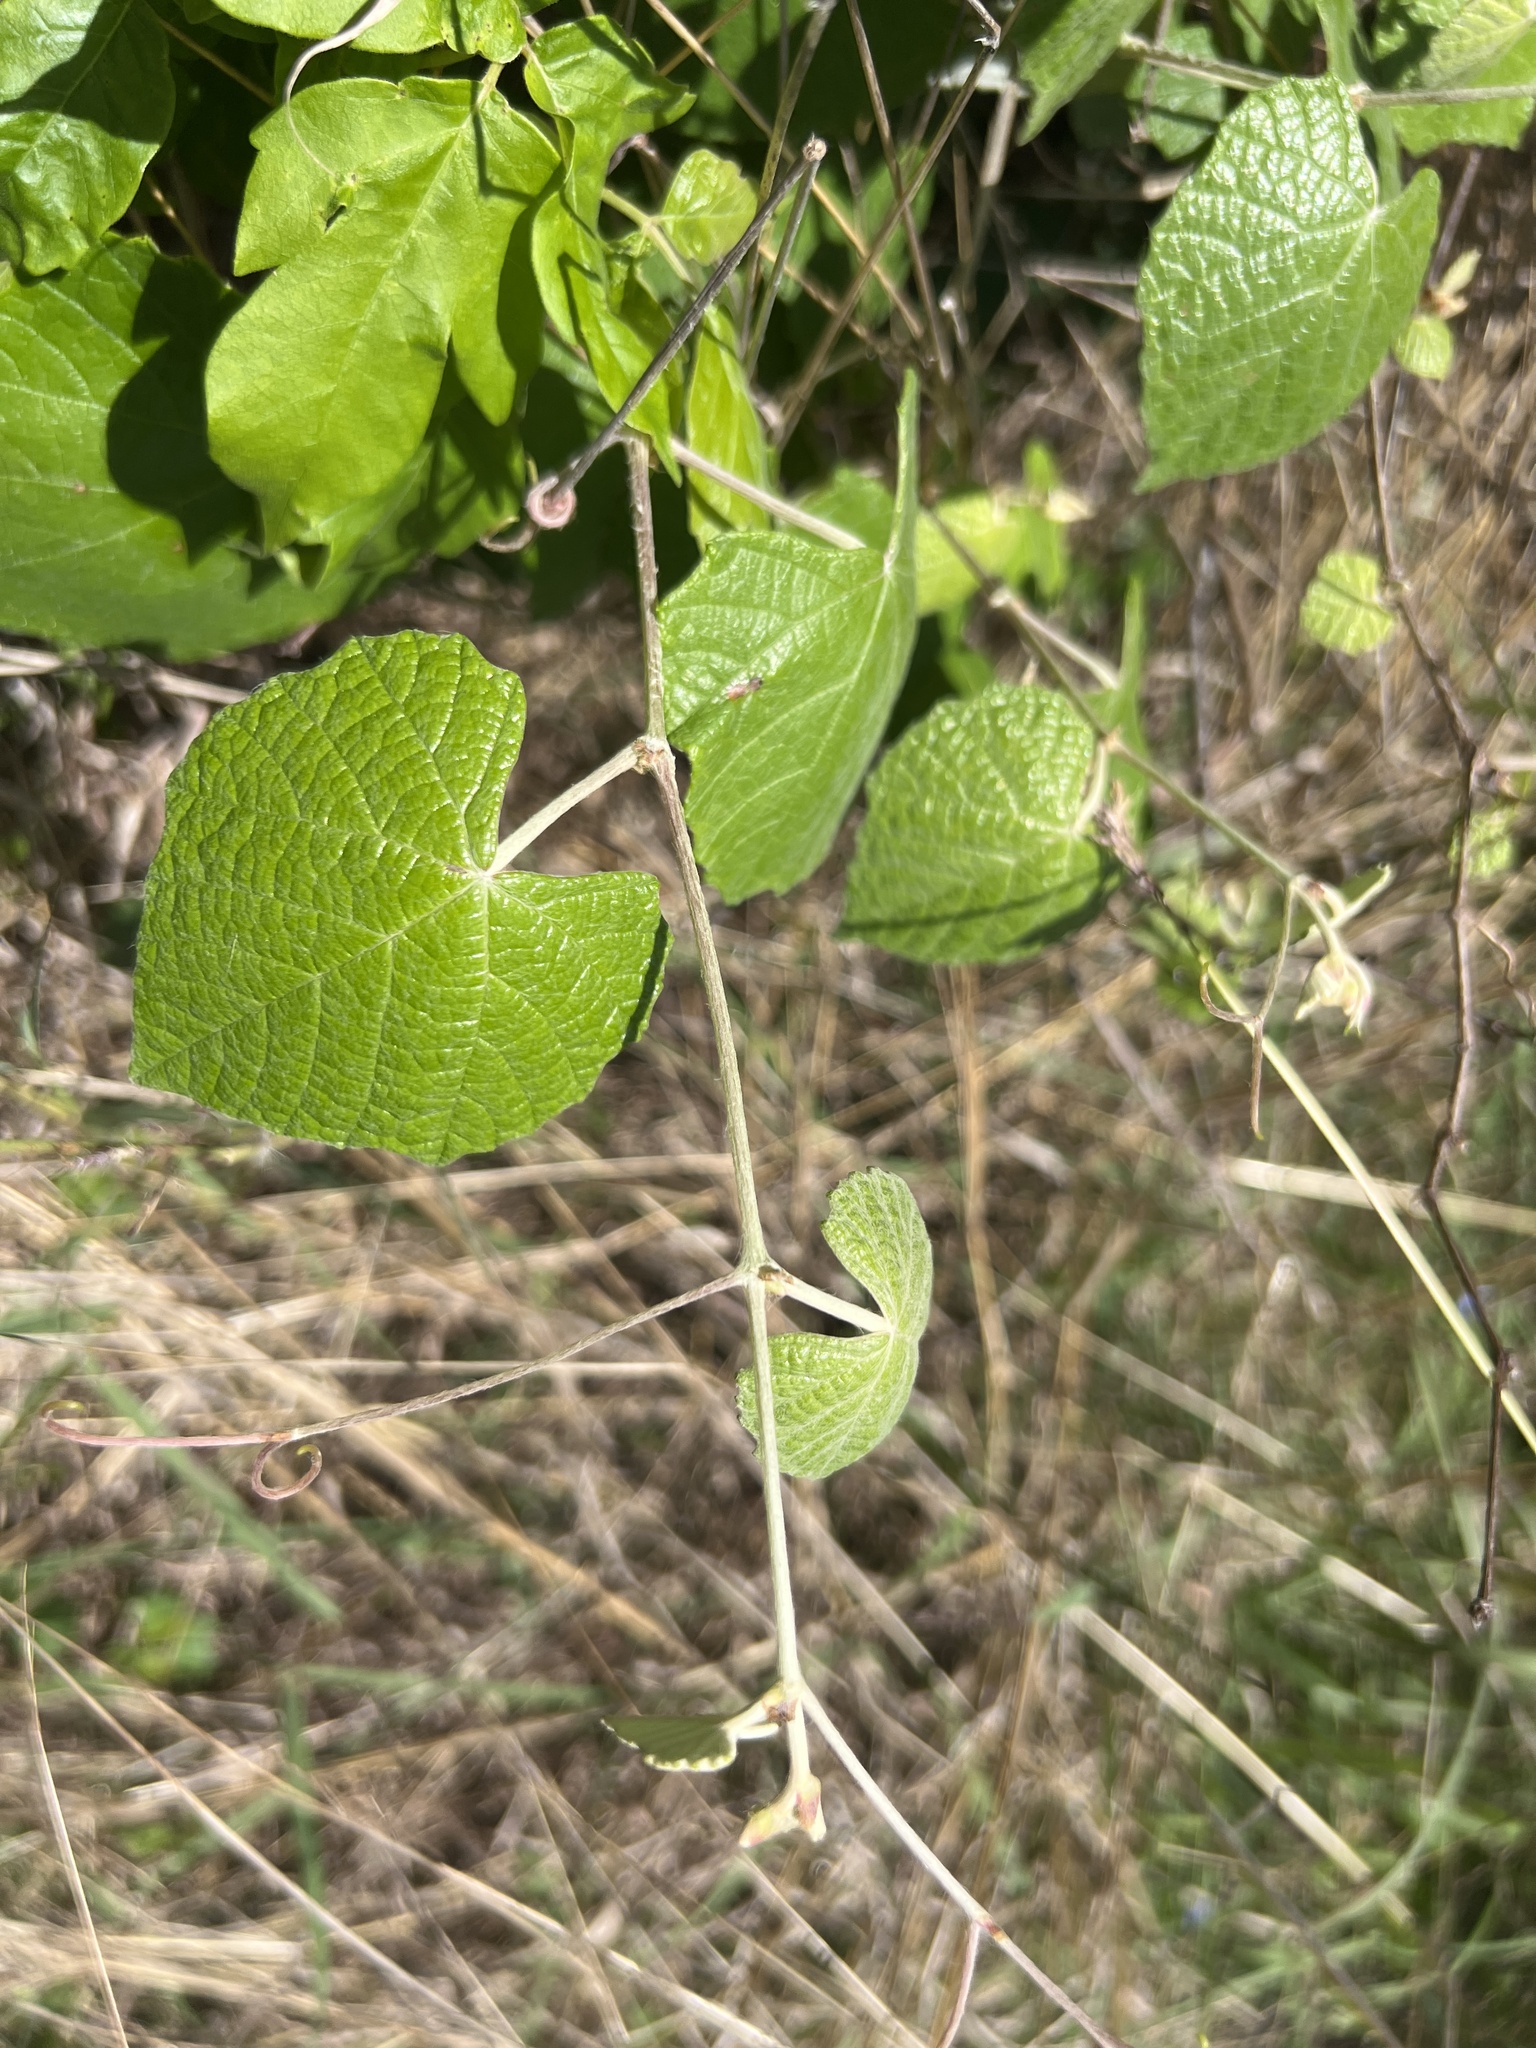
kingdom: Plantae
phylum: Tracheophyta
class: Magnoliopsida
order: Vitales
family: Vitaceae
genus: Vitis
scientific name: Vitis mustangensis
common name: Mustang grape
